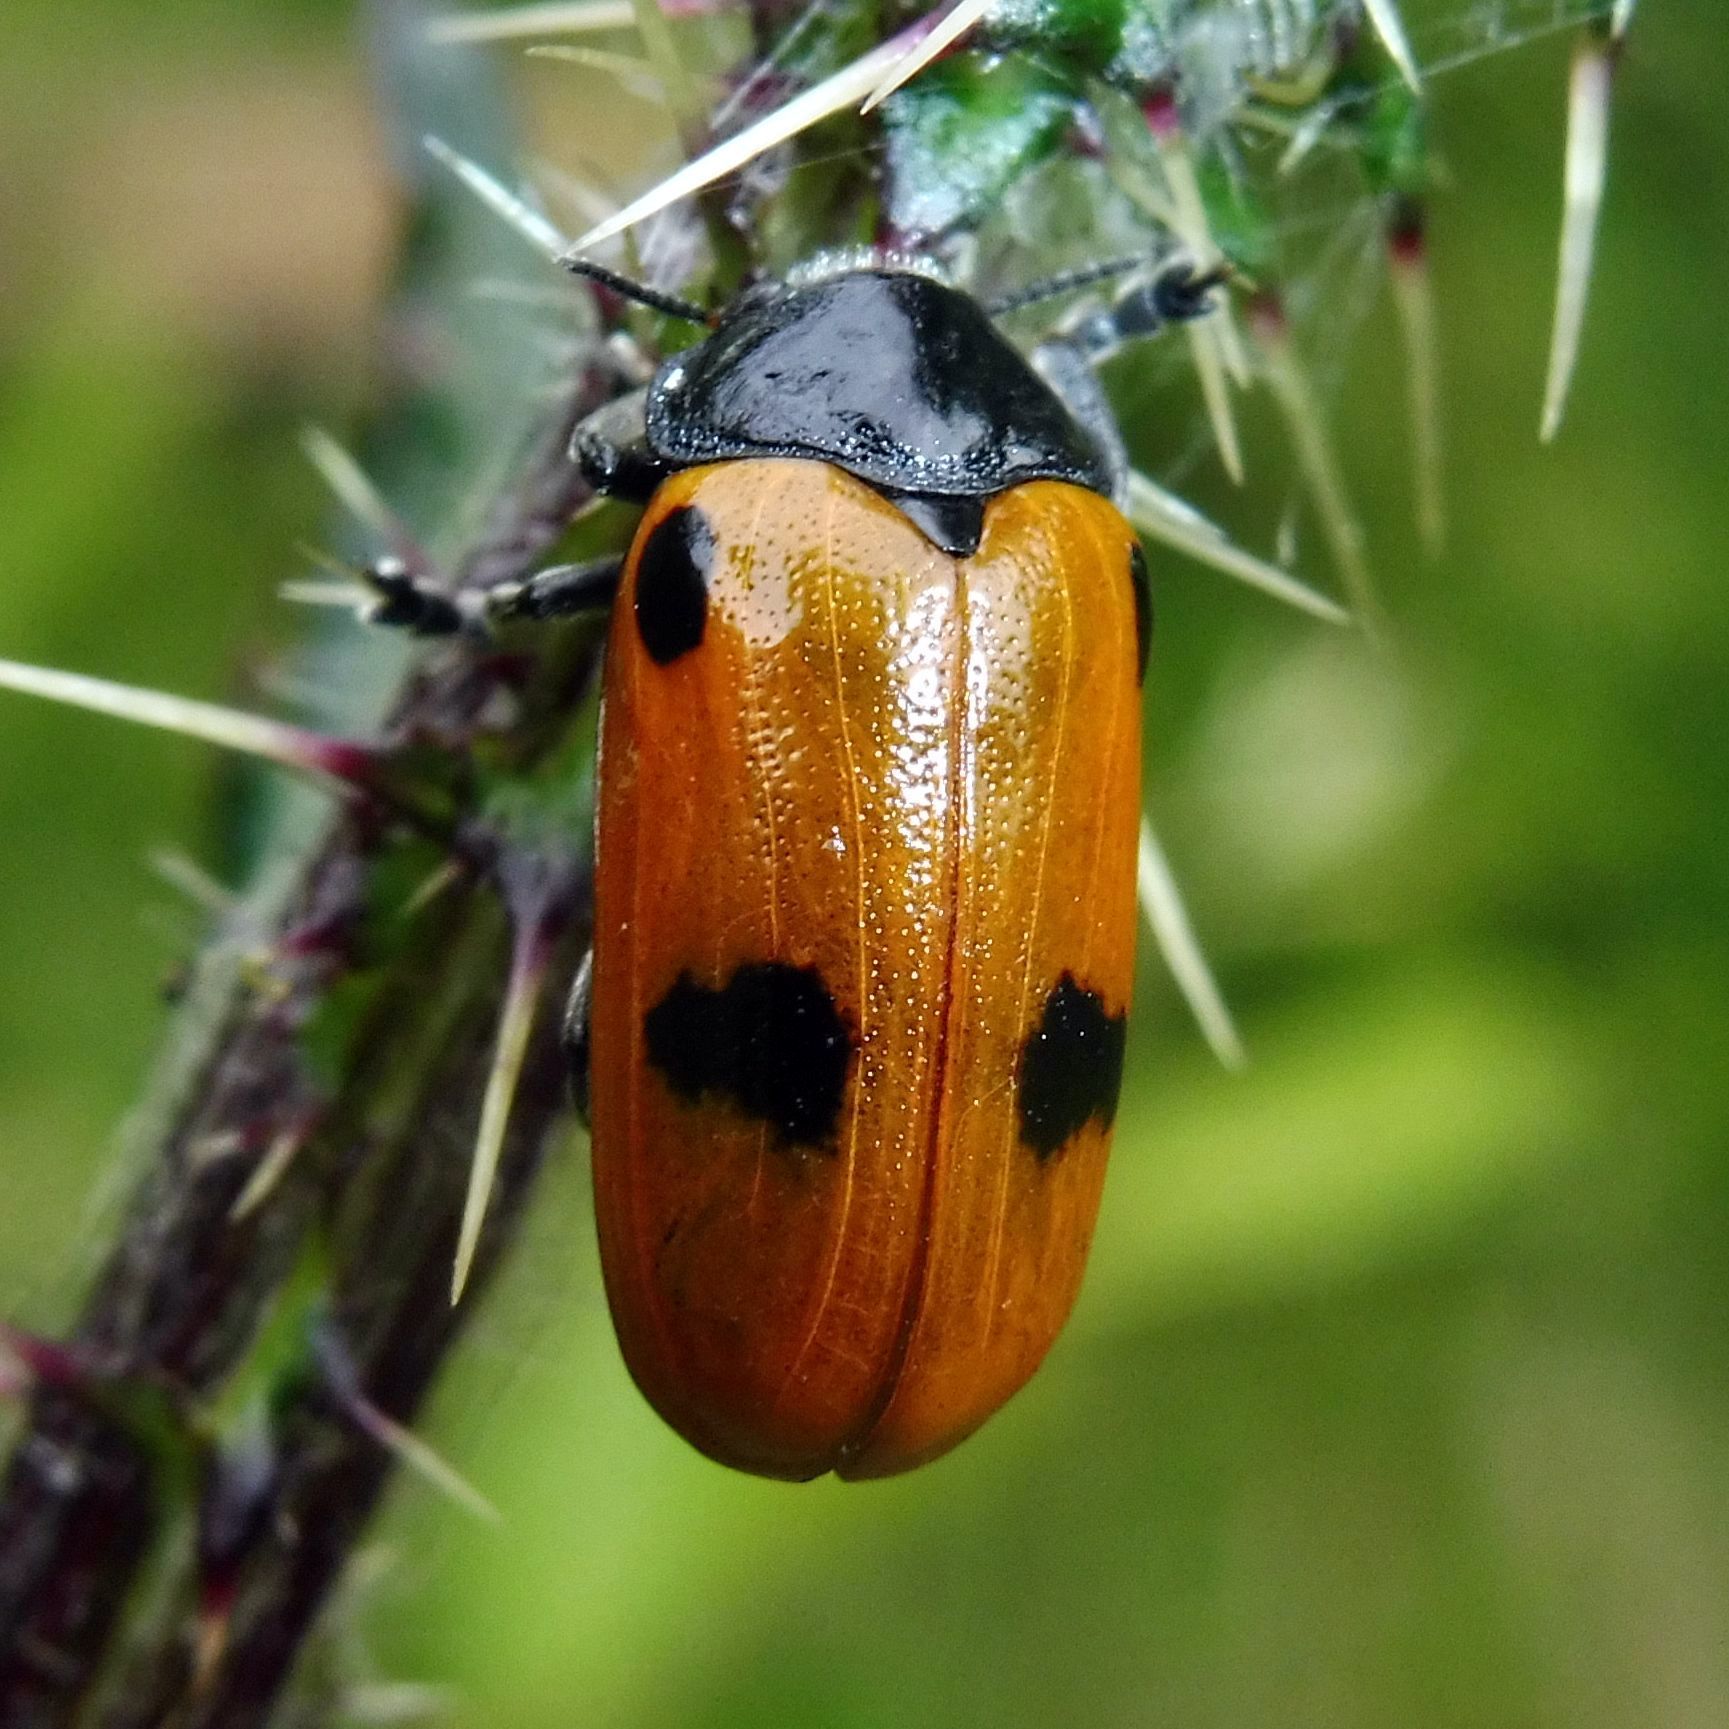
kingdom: Animalia
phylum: Arthropoda
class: Insecta
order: Coleoptera
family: Chrysomelidae
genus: Clytra
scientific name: Clytra quadripunctata
